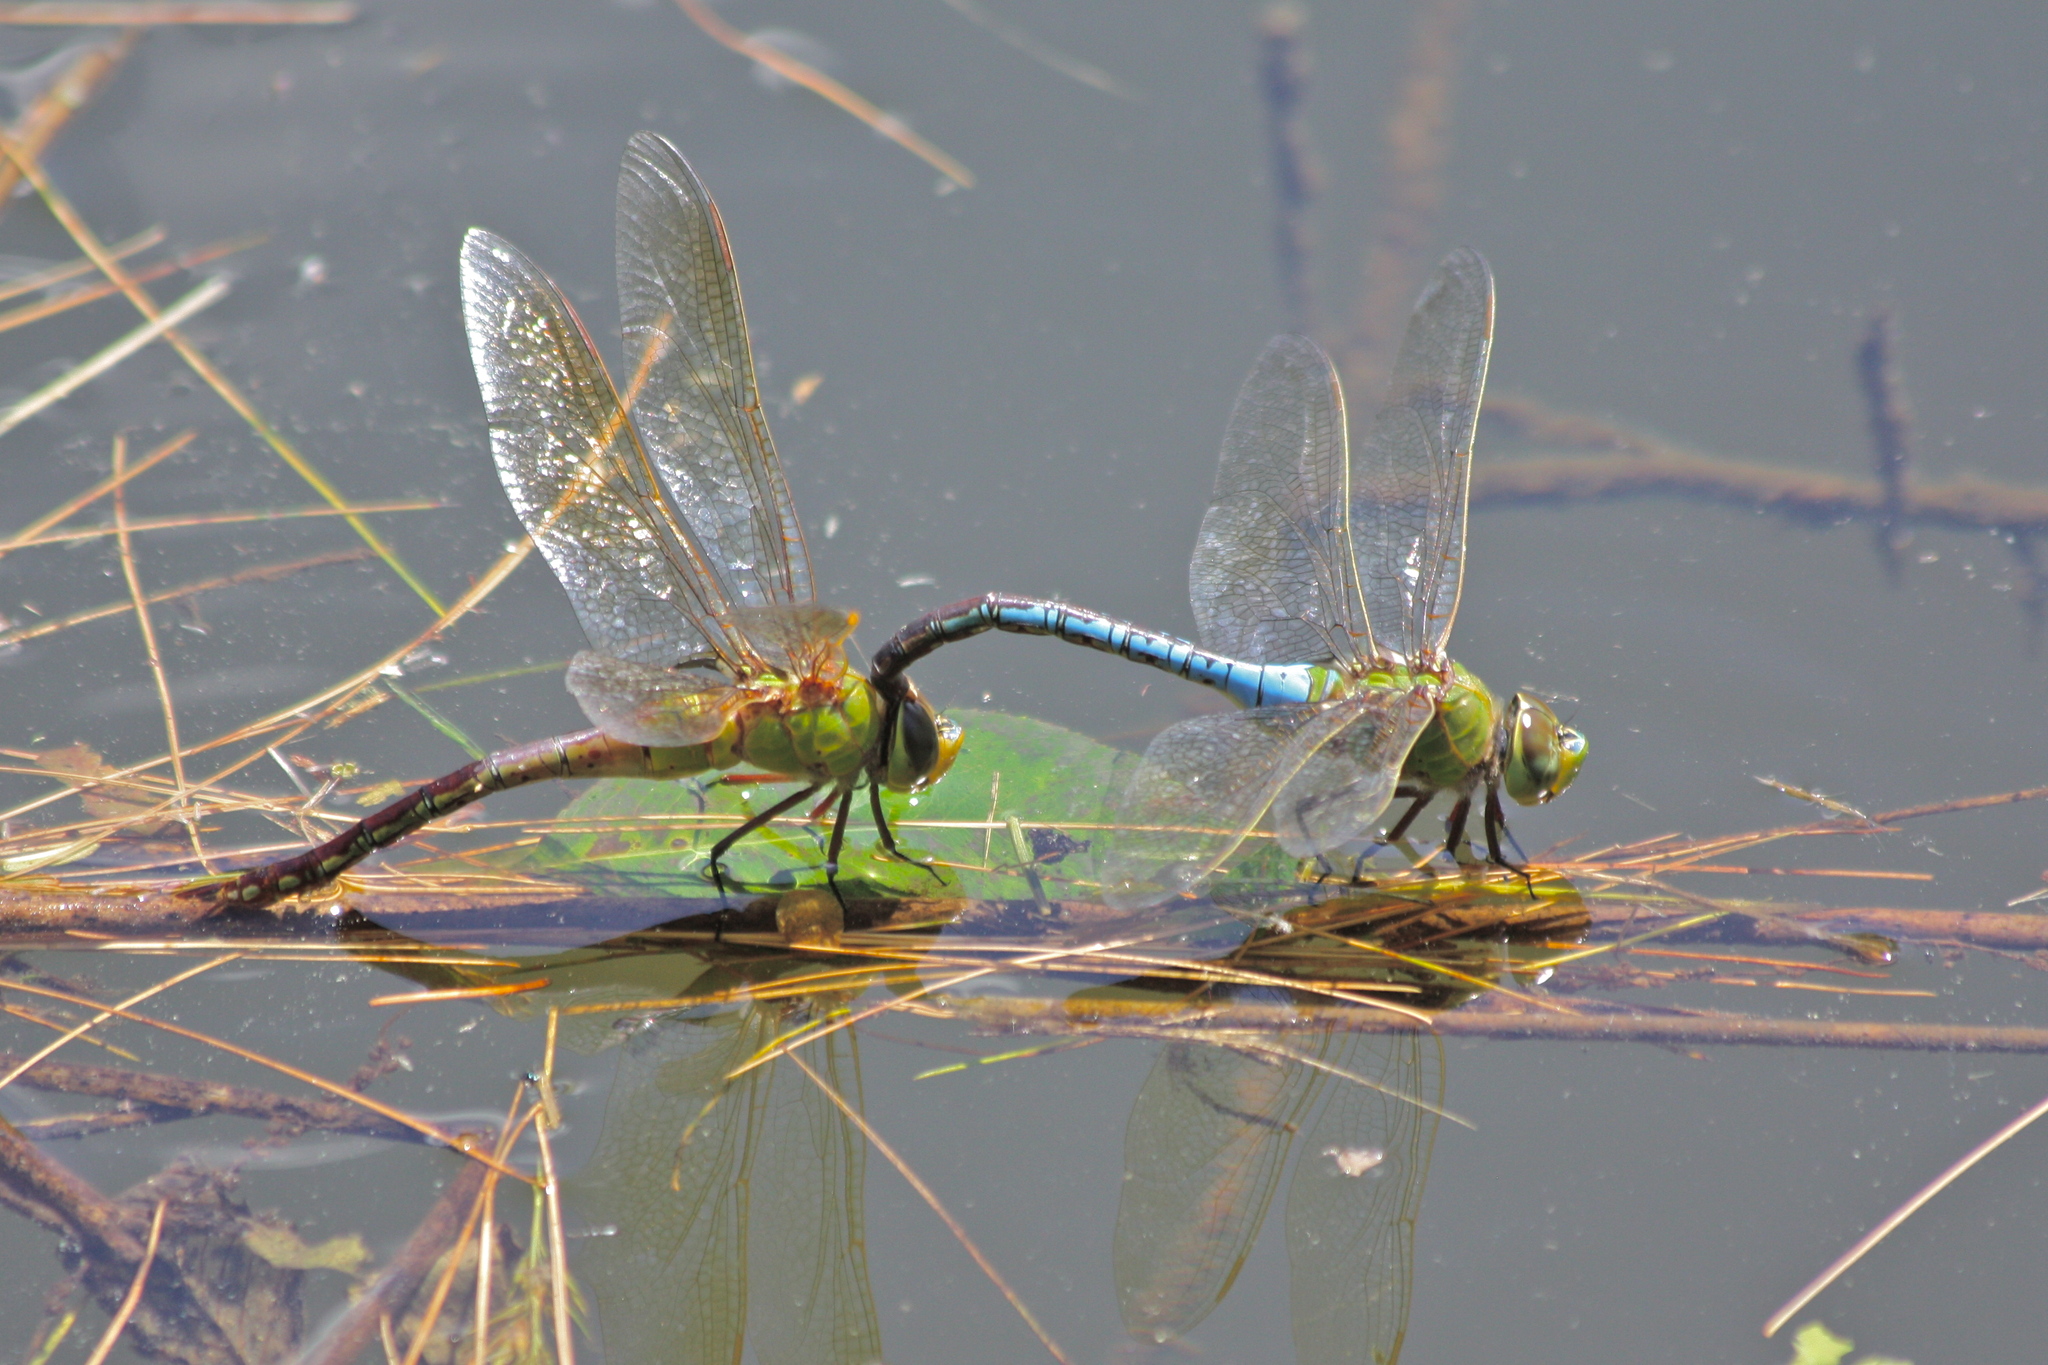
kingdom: Animalia
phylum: Arthropoda
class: Insecta
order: Odonata
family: Aeshnidae
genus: Anax
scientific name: Anax junius
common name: Common green darner
